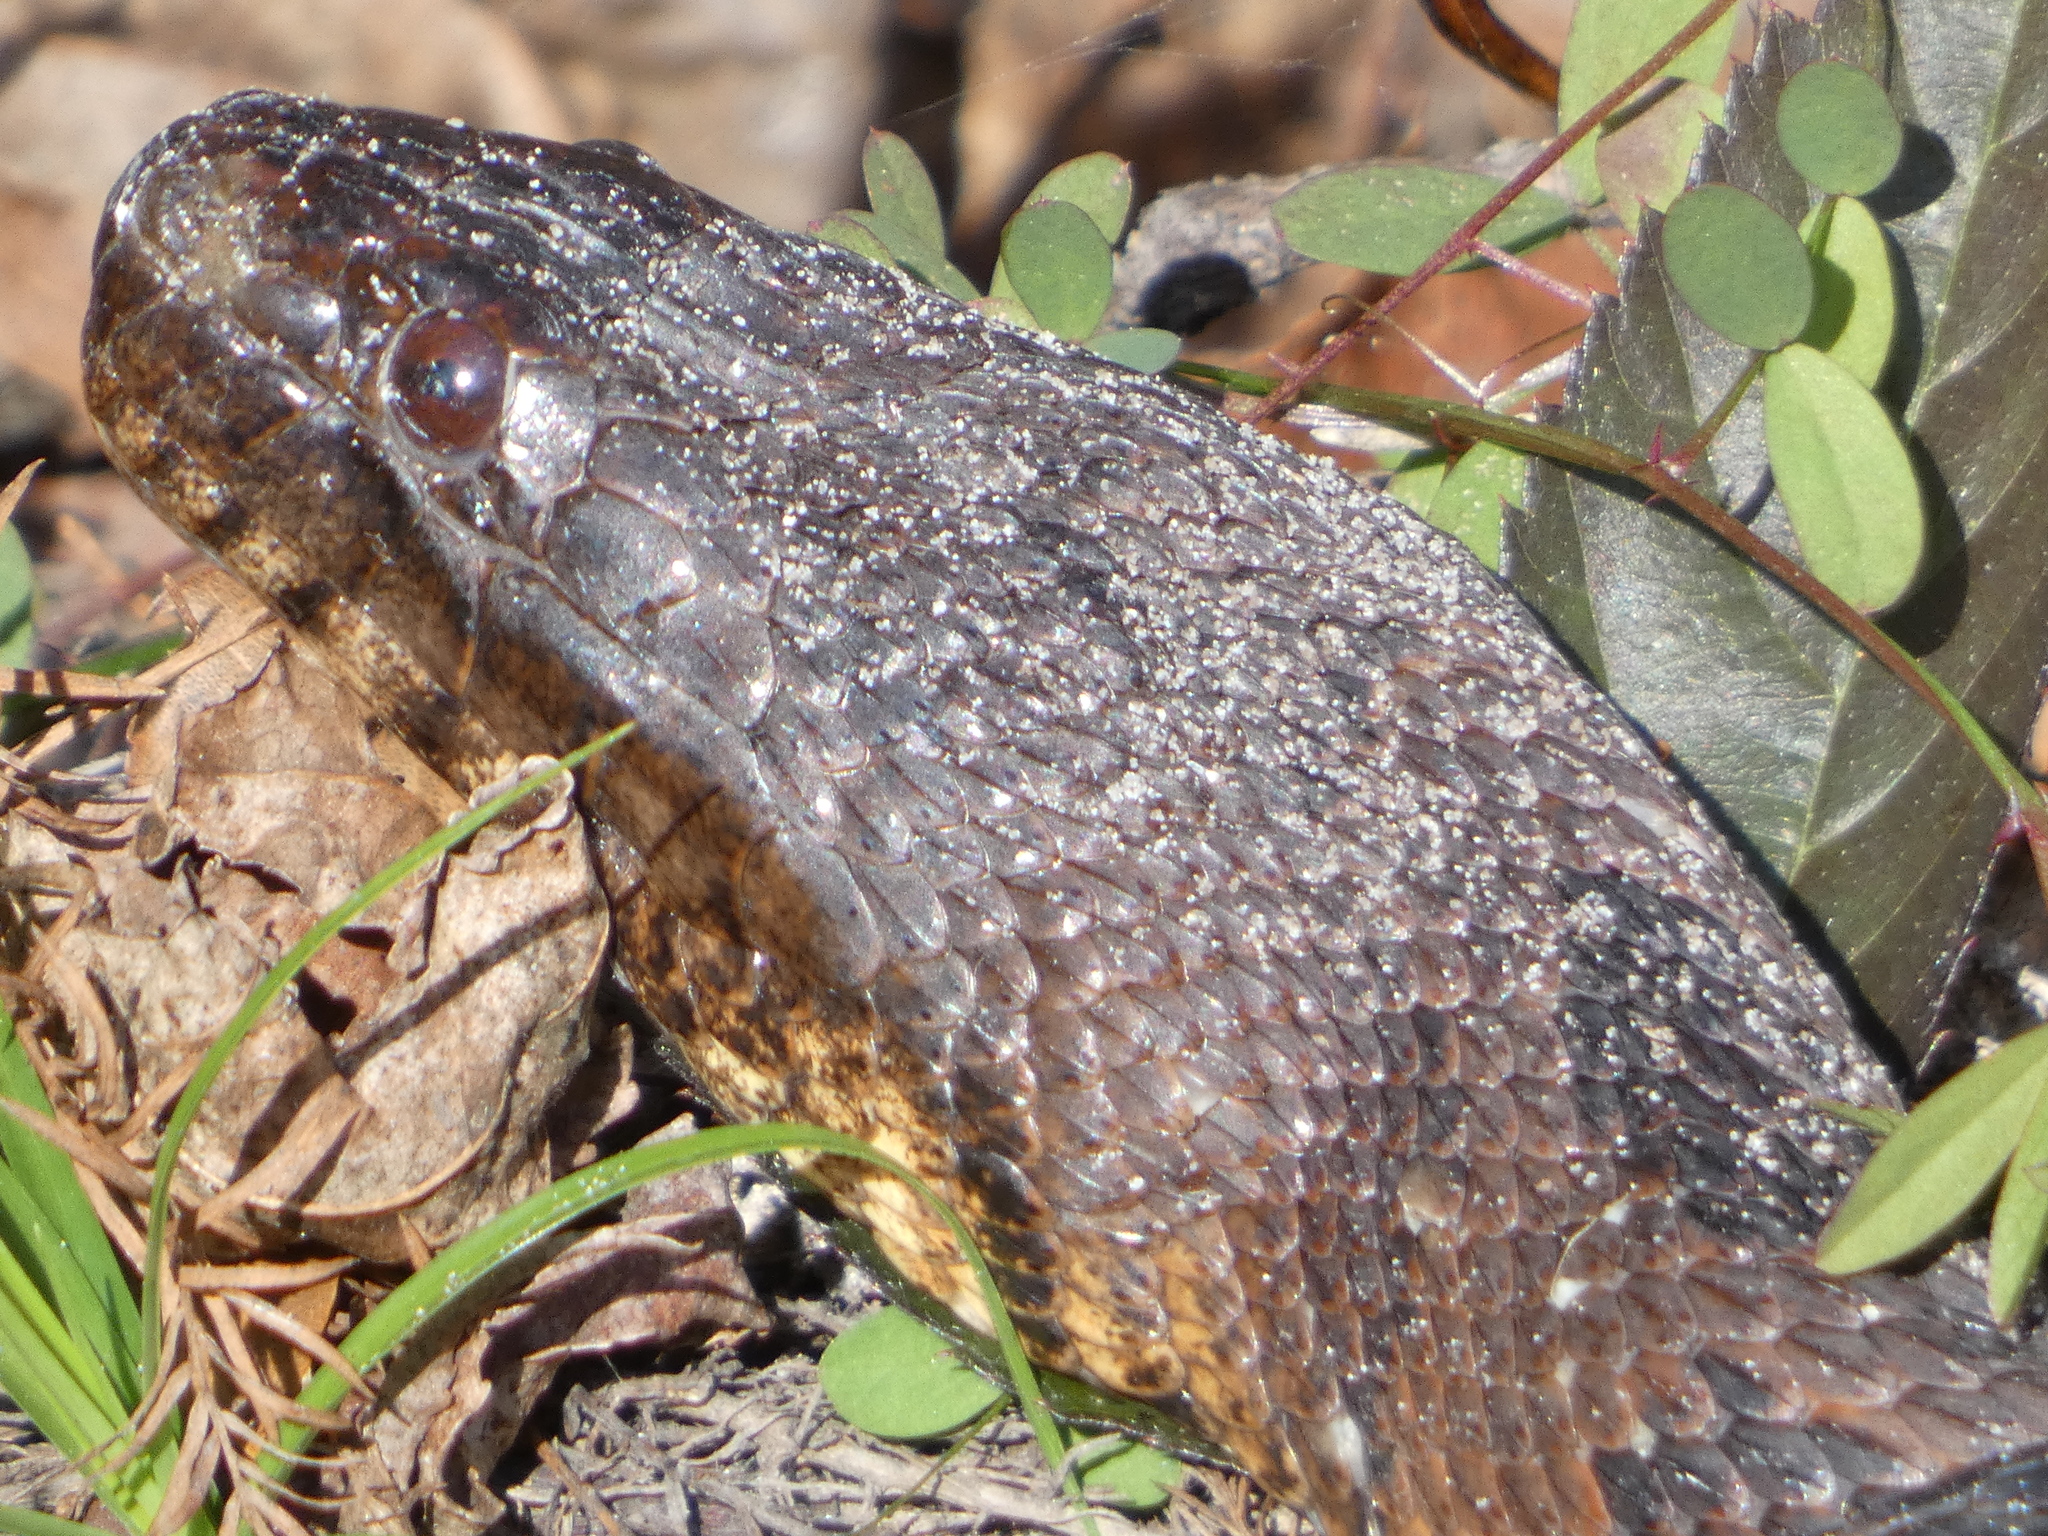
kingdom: Animalia
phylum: Chordata
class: Squamata
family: Colubridae
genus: Nerodia
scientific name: Nerodia taxispilota
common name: Brown water snake
